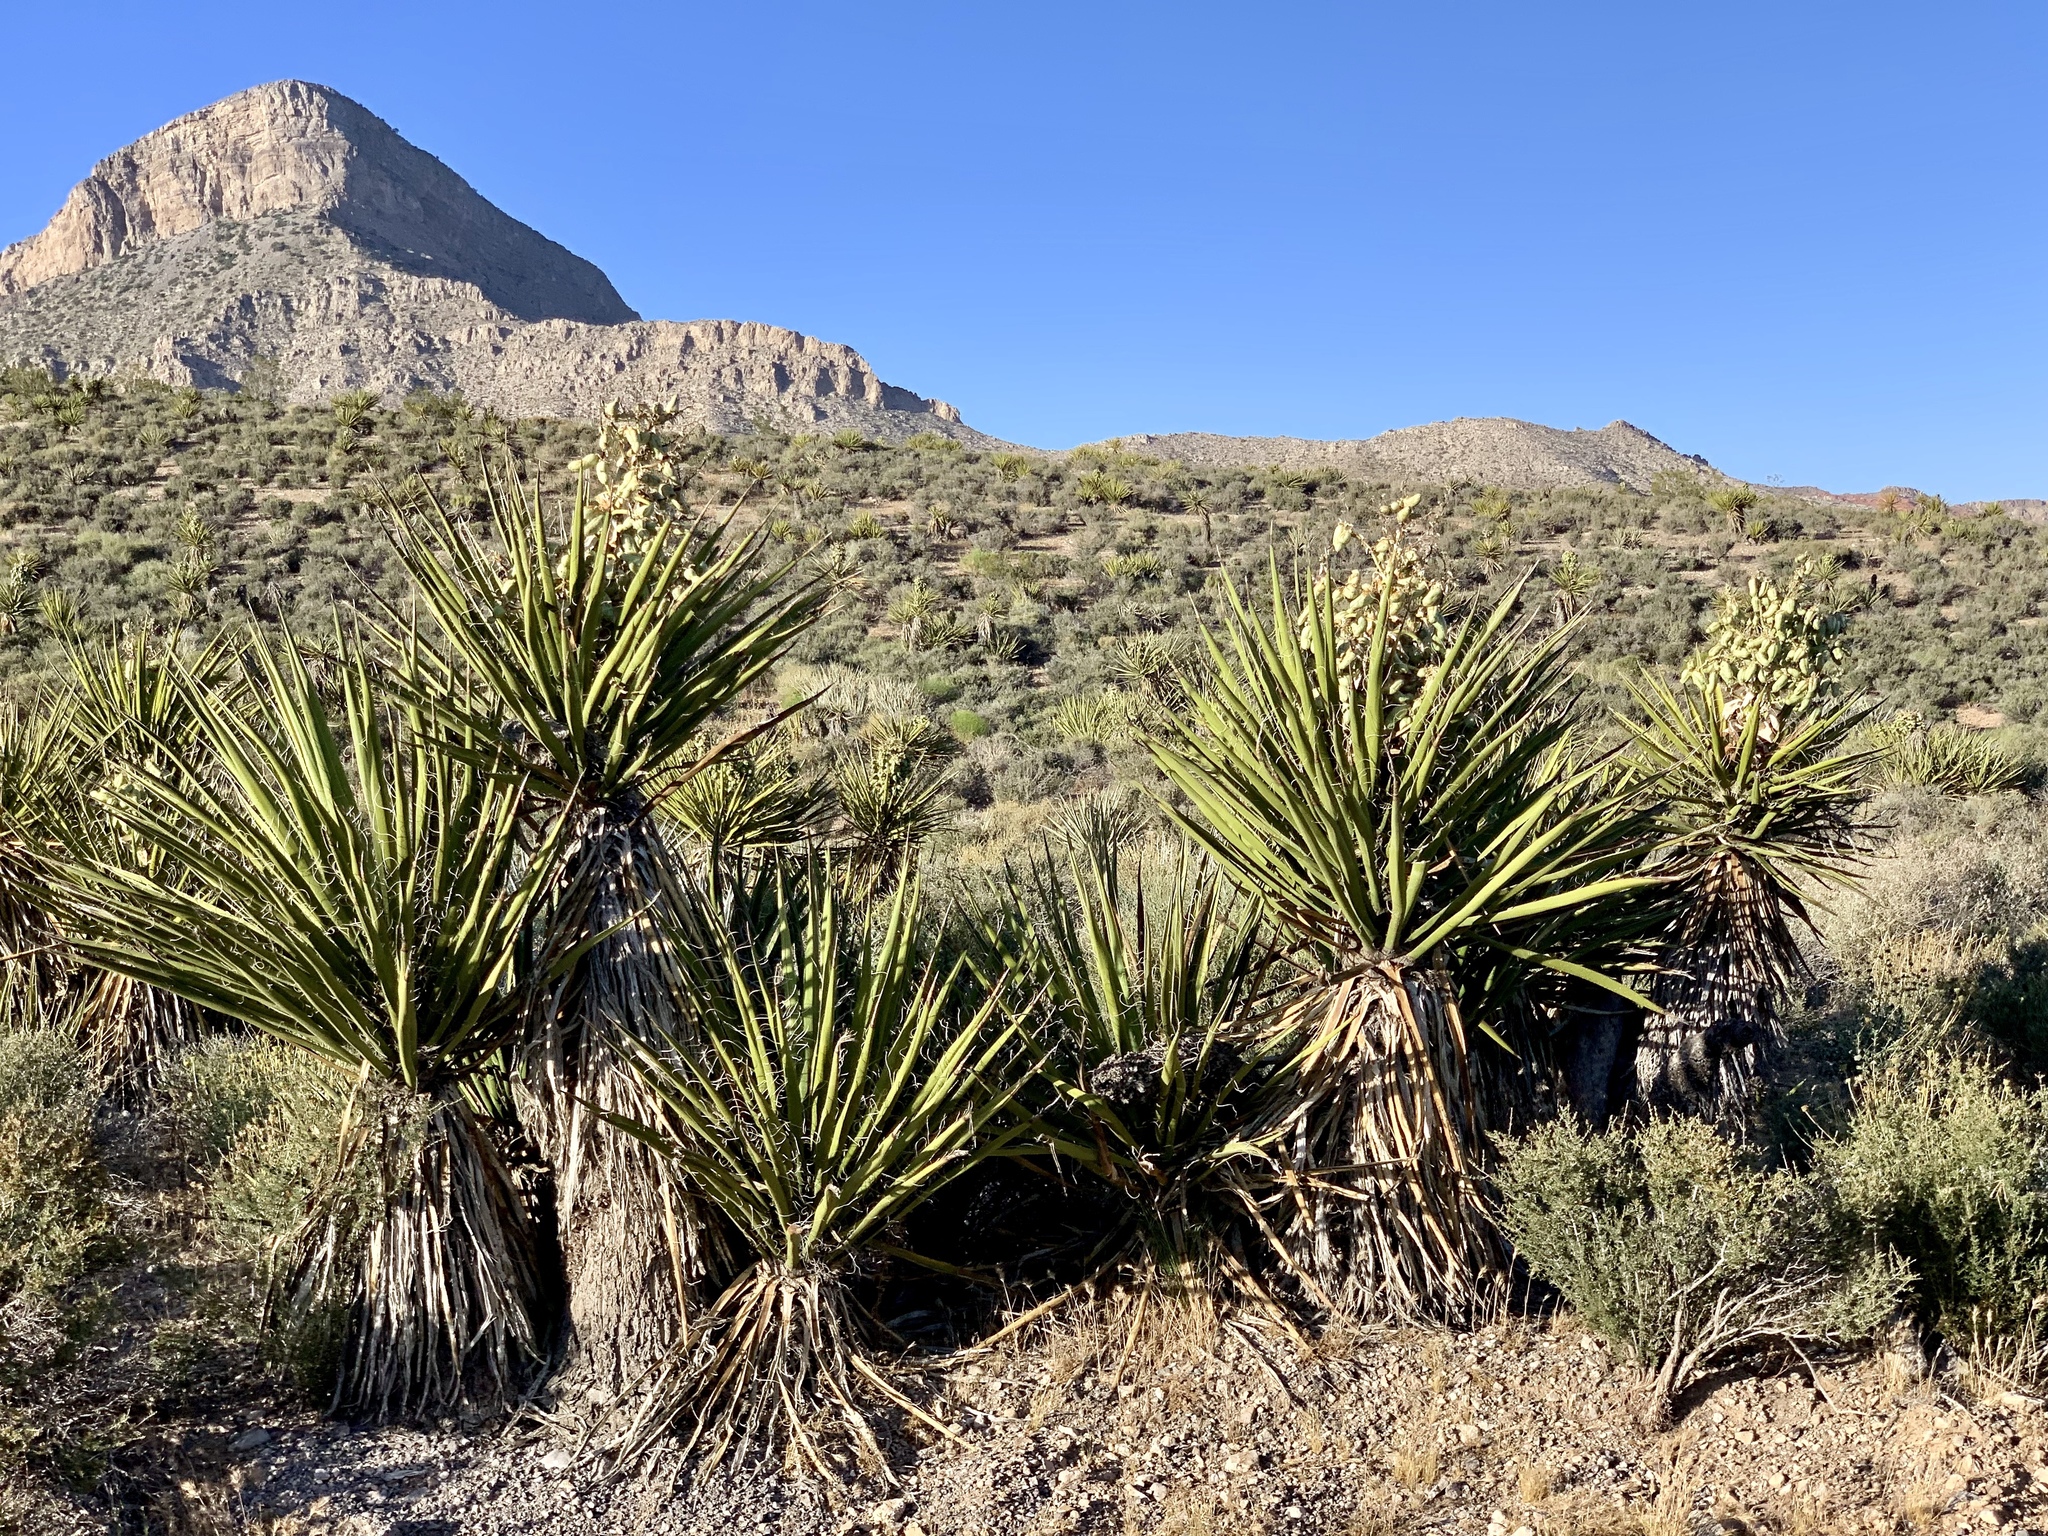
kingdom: Plantae
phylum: Tracheophyta
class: Liliopsida
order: Asparagales
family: Asparagaceae
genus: Yucca
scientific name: Yucca schidigera
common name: Mojave yucca
